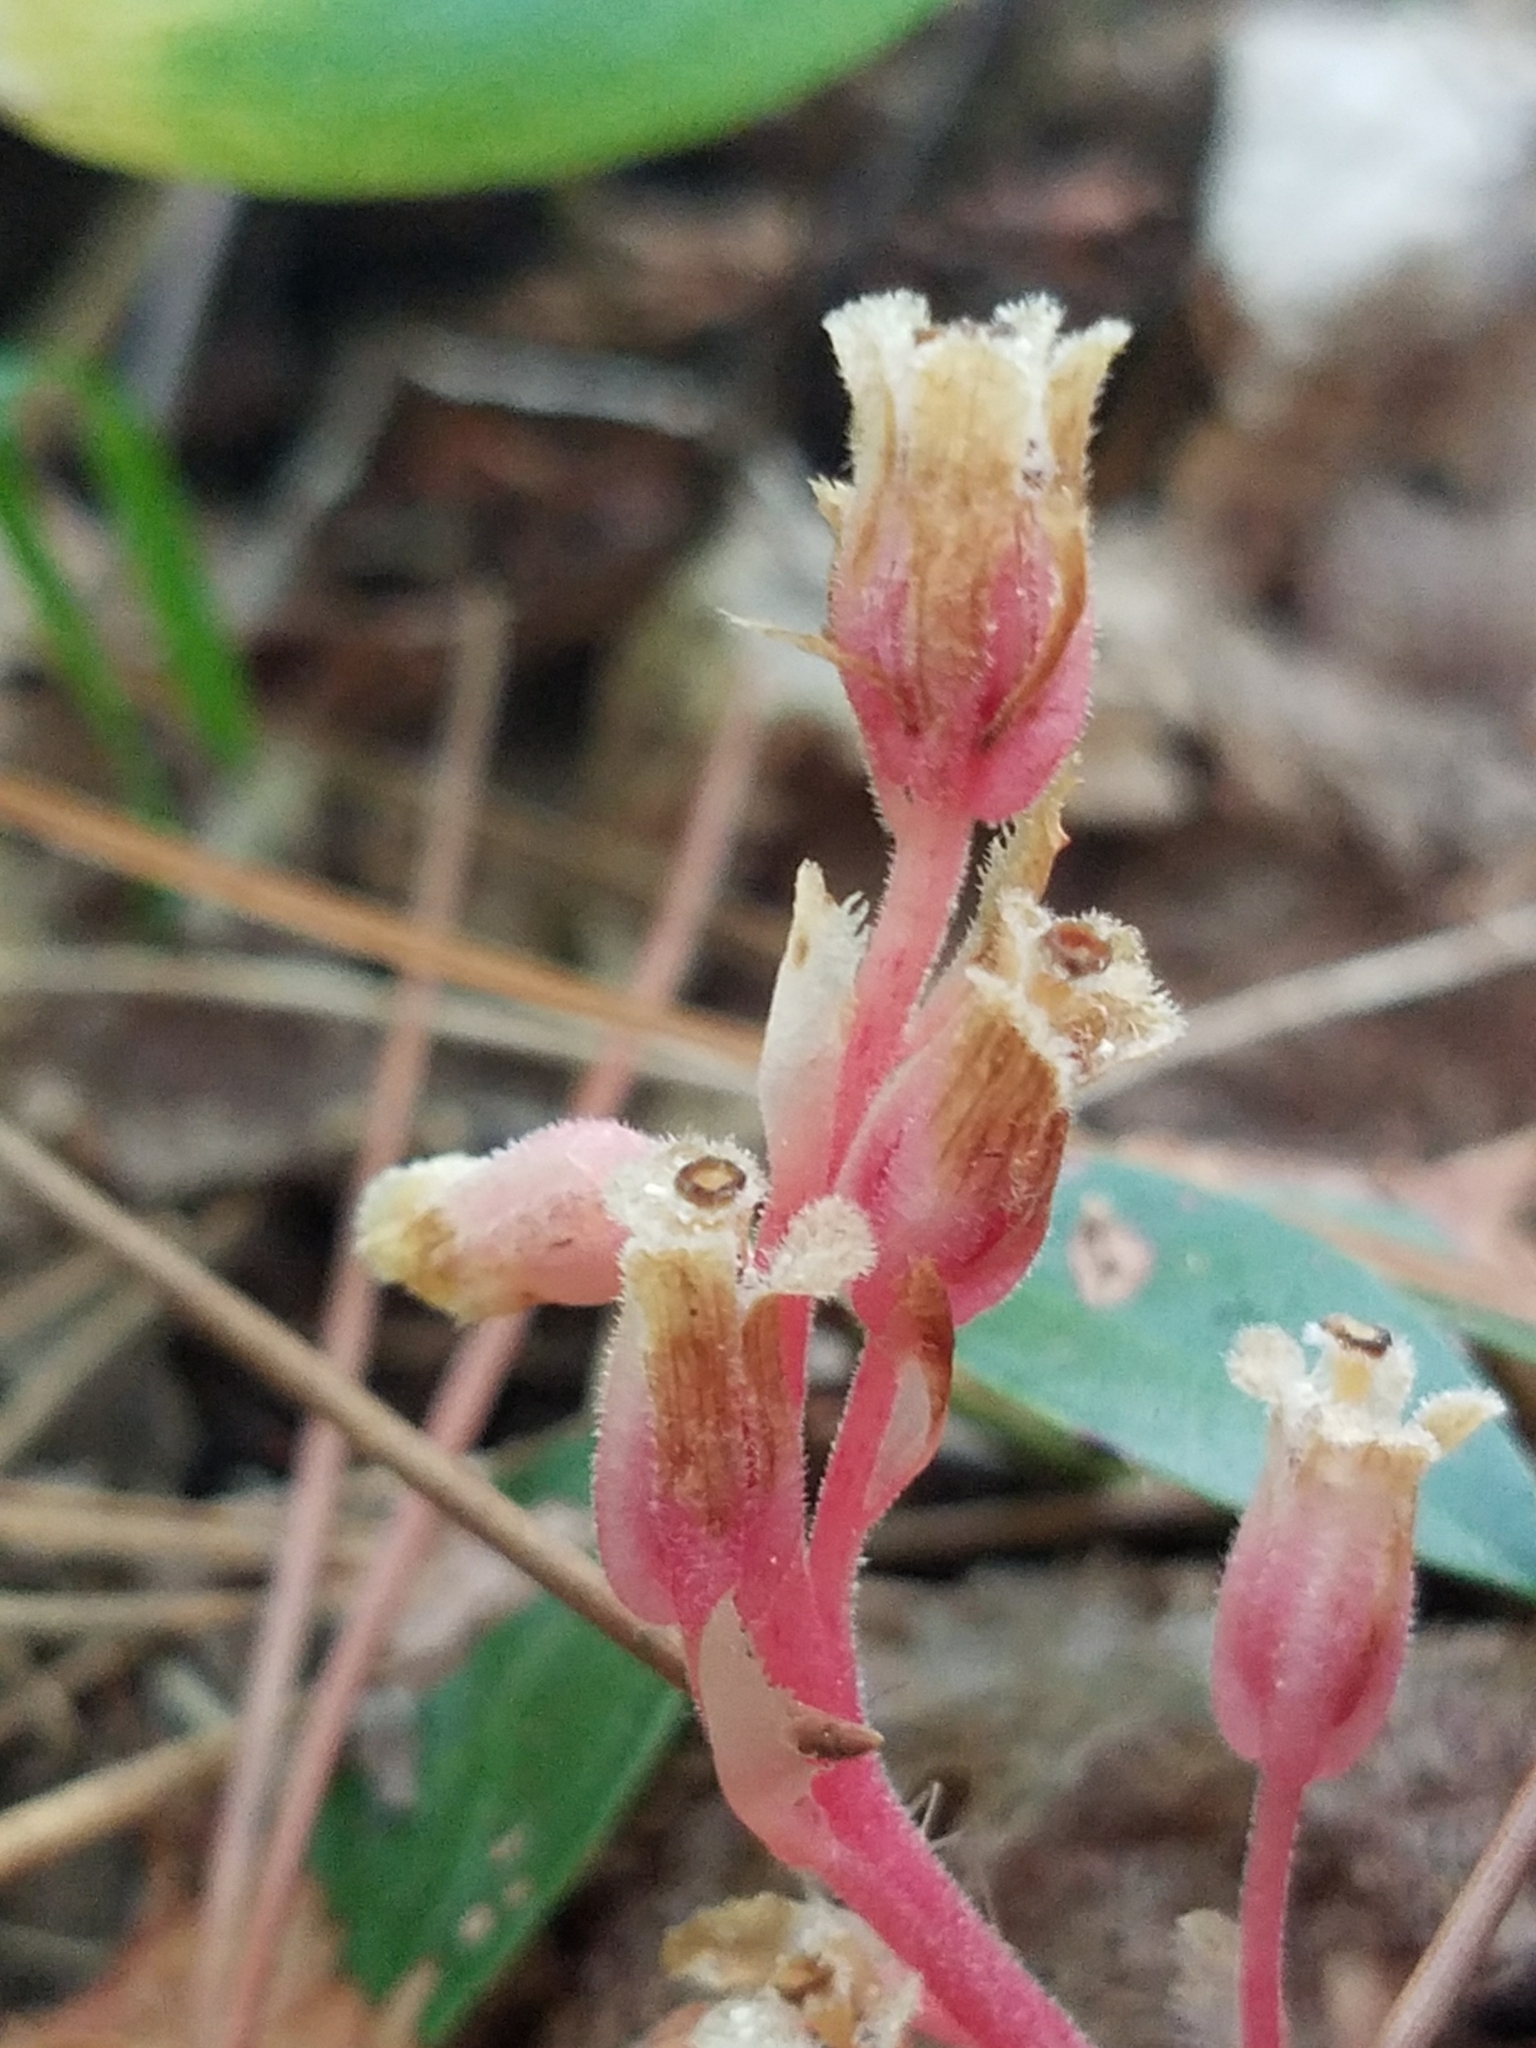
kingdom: Plantae
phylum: Tracheophyta
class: Magnoliopsida
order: Ericales
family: Ericaceae
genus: Hypopitys
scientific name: Hypopitys monotropa
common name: Yellow bird's-nest
